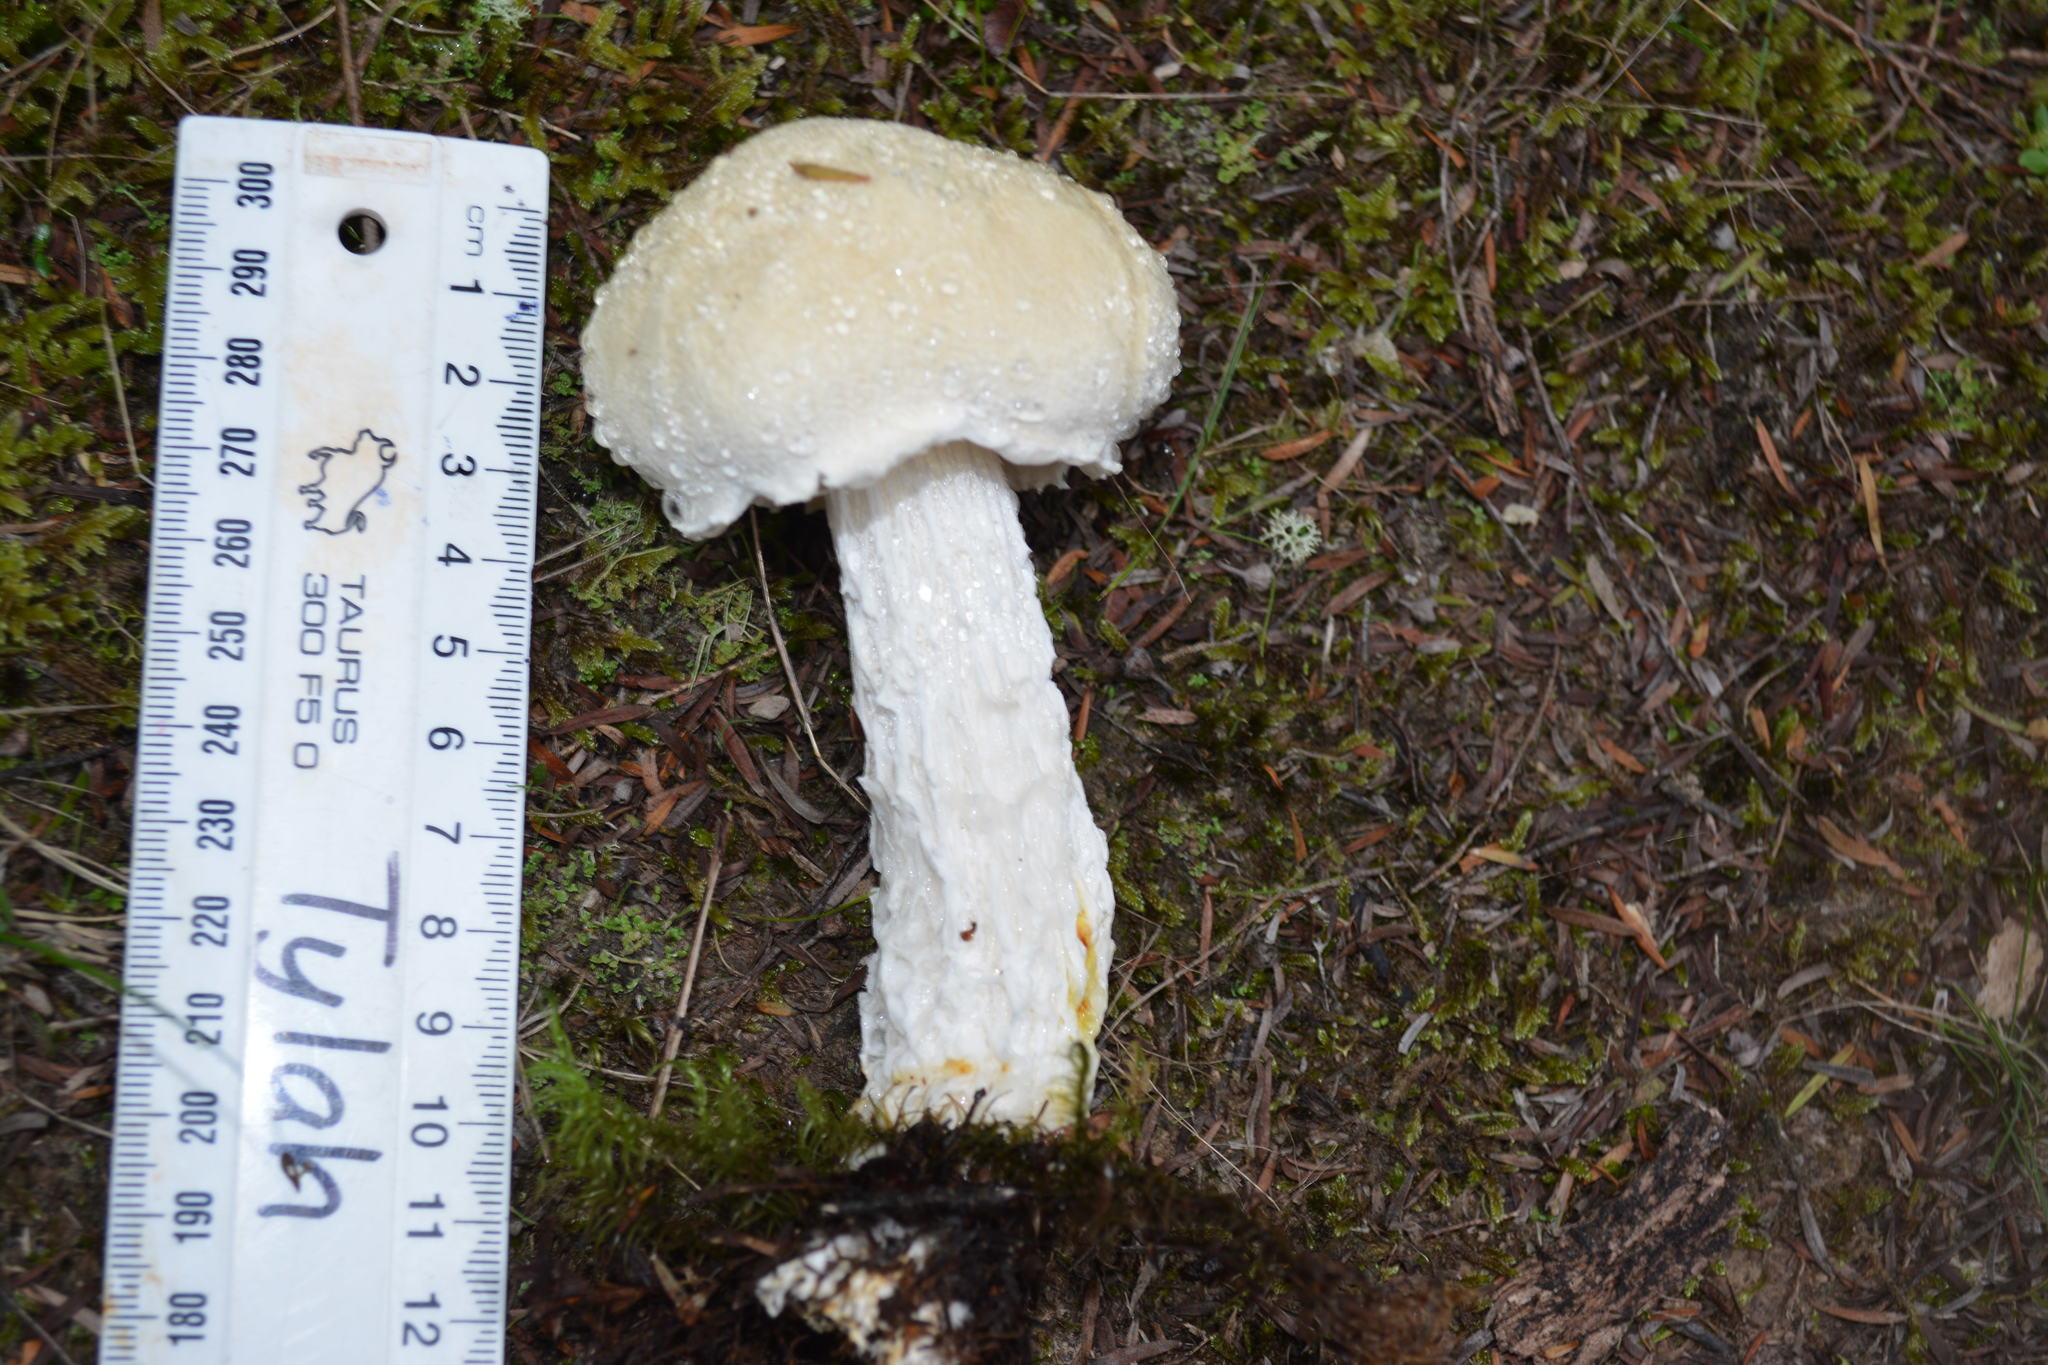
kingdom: Fungi
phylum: Basidiomycota
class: Agaricomycetes
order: Boletales
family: Boletaceae
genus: Fistulinella
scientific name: Fistulinella nivea
